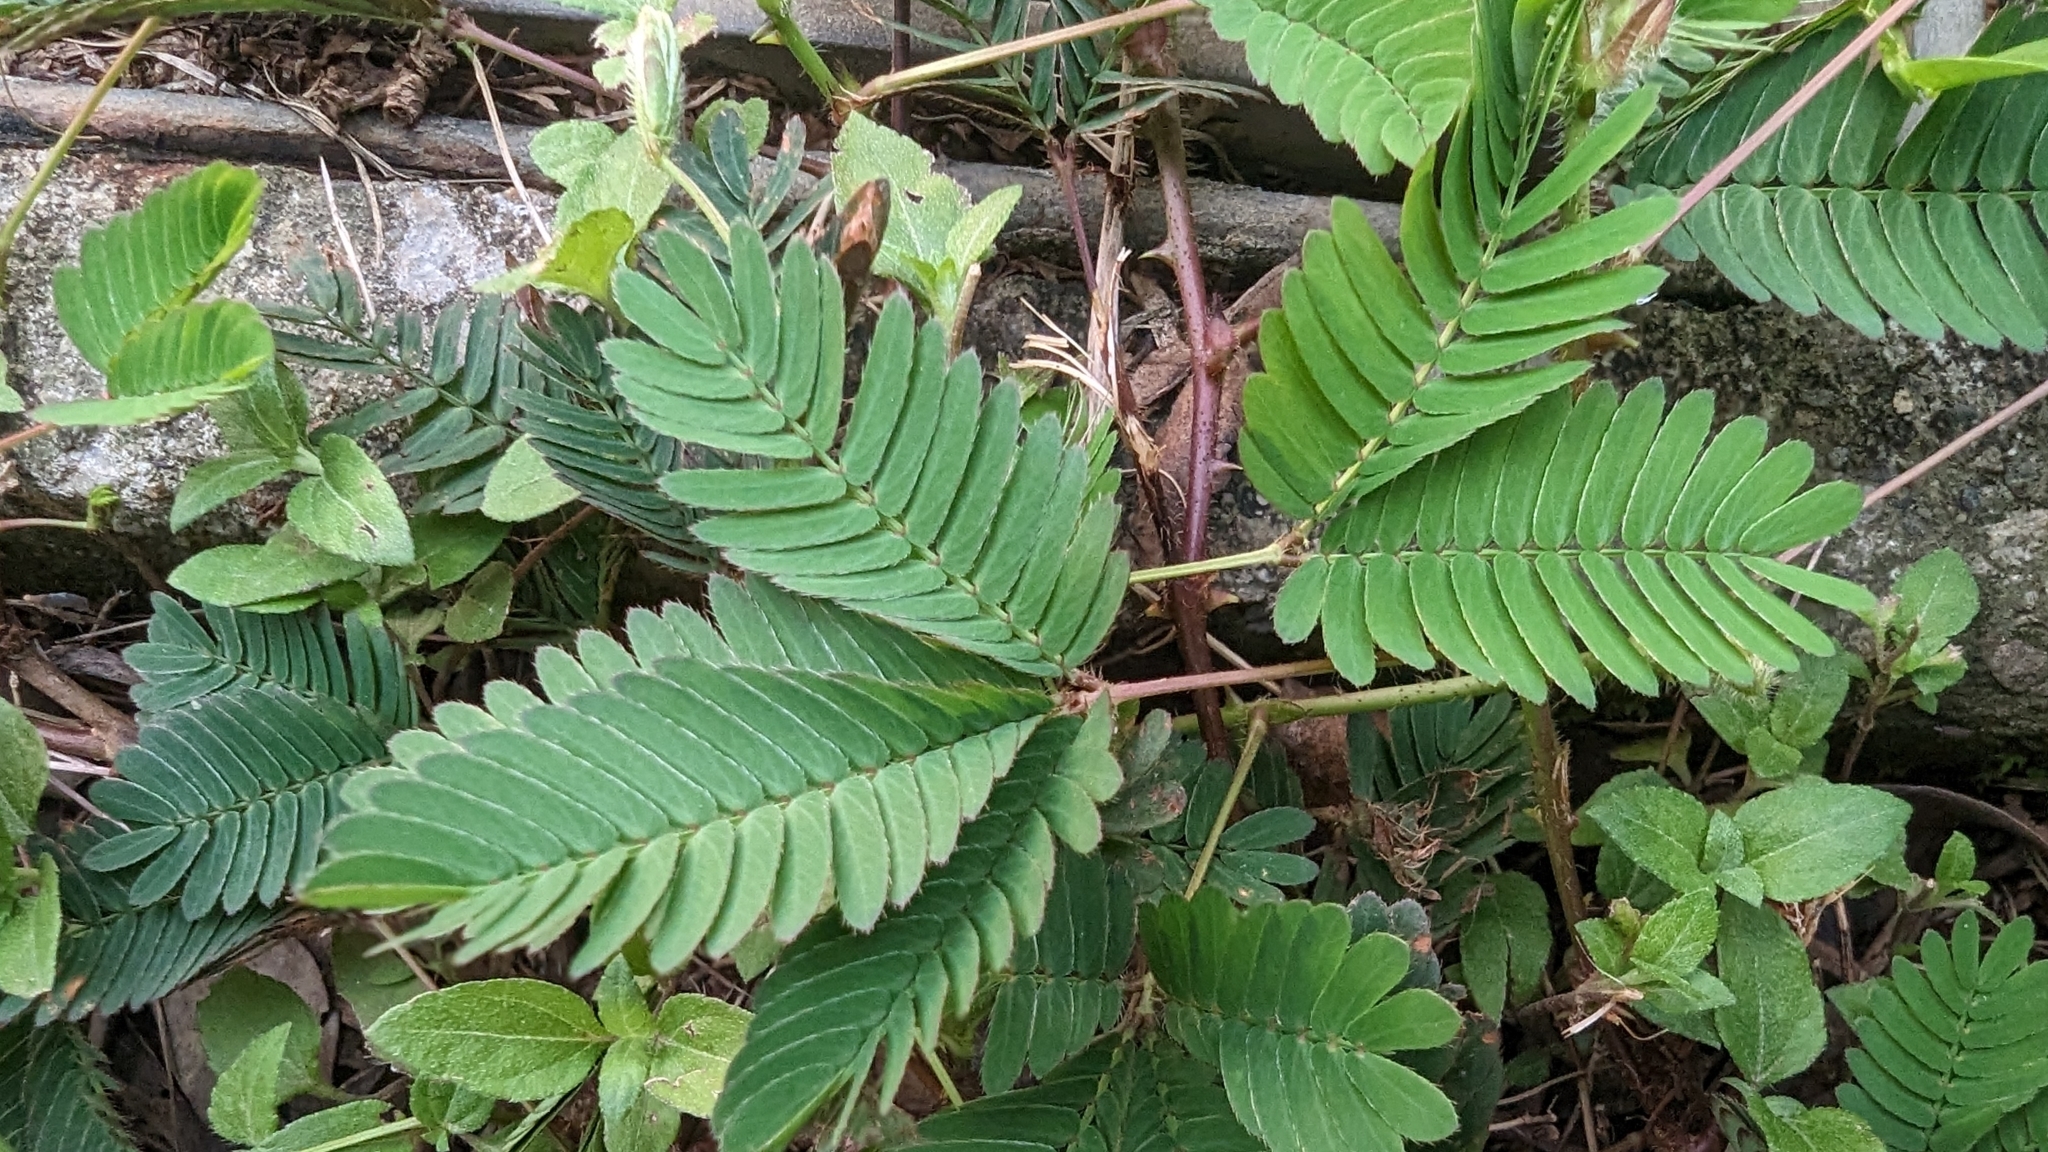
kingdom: Plantae
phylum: Tracheophyta
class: Magnoliopsida
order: Fabales
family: Fabaceae
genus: Mimosa
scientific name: Mimosa pudica
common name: Sensitive plant
